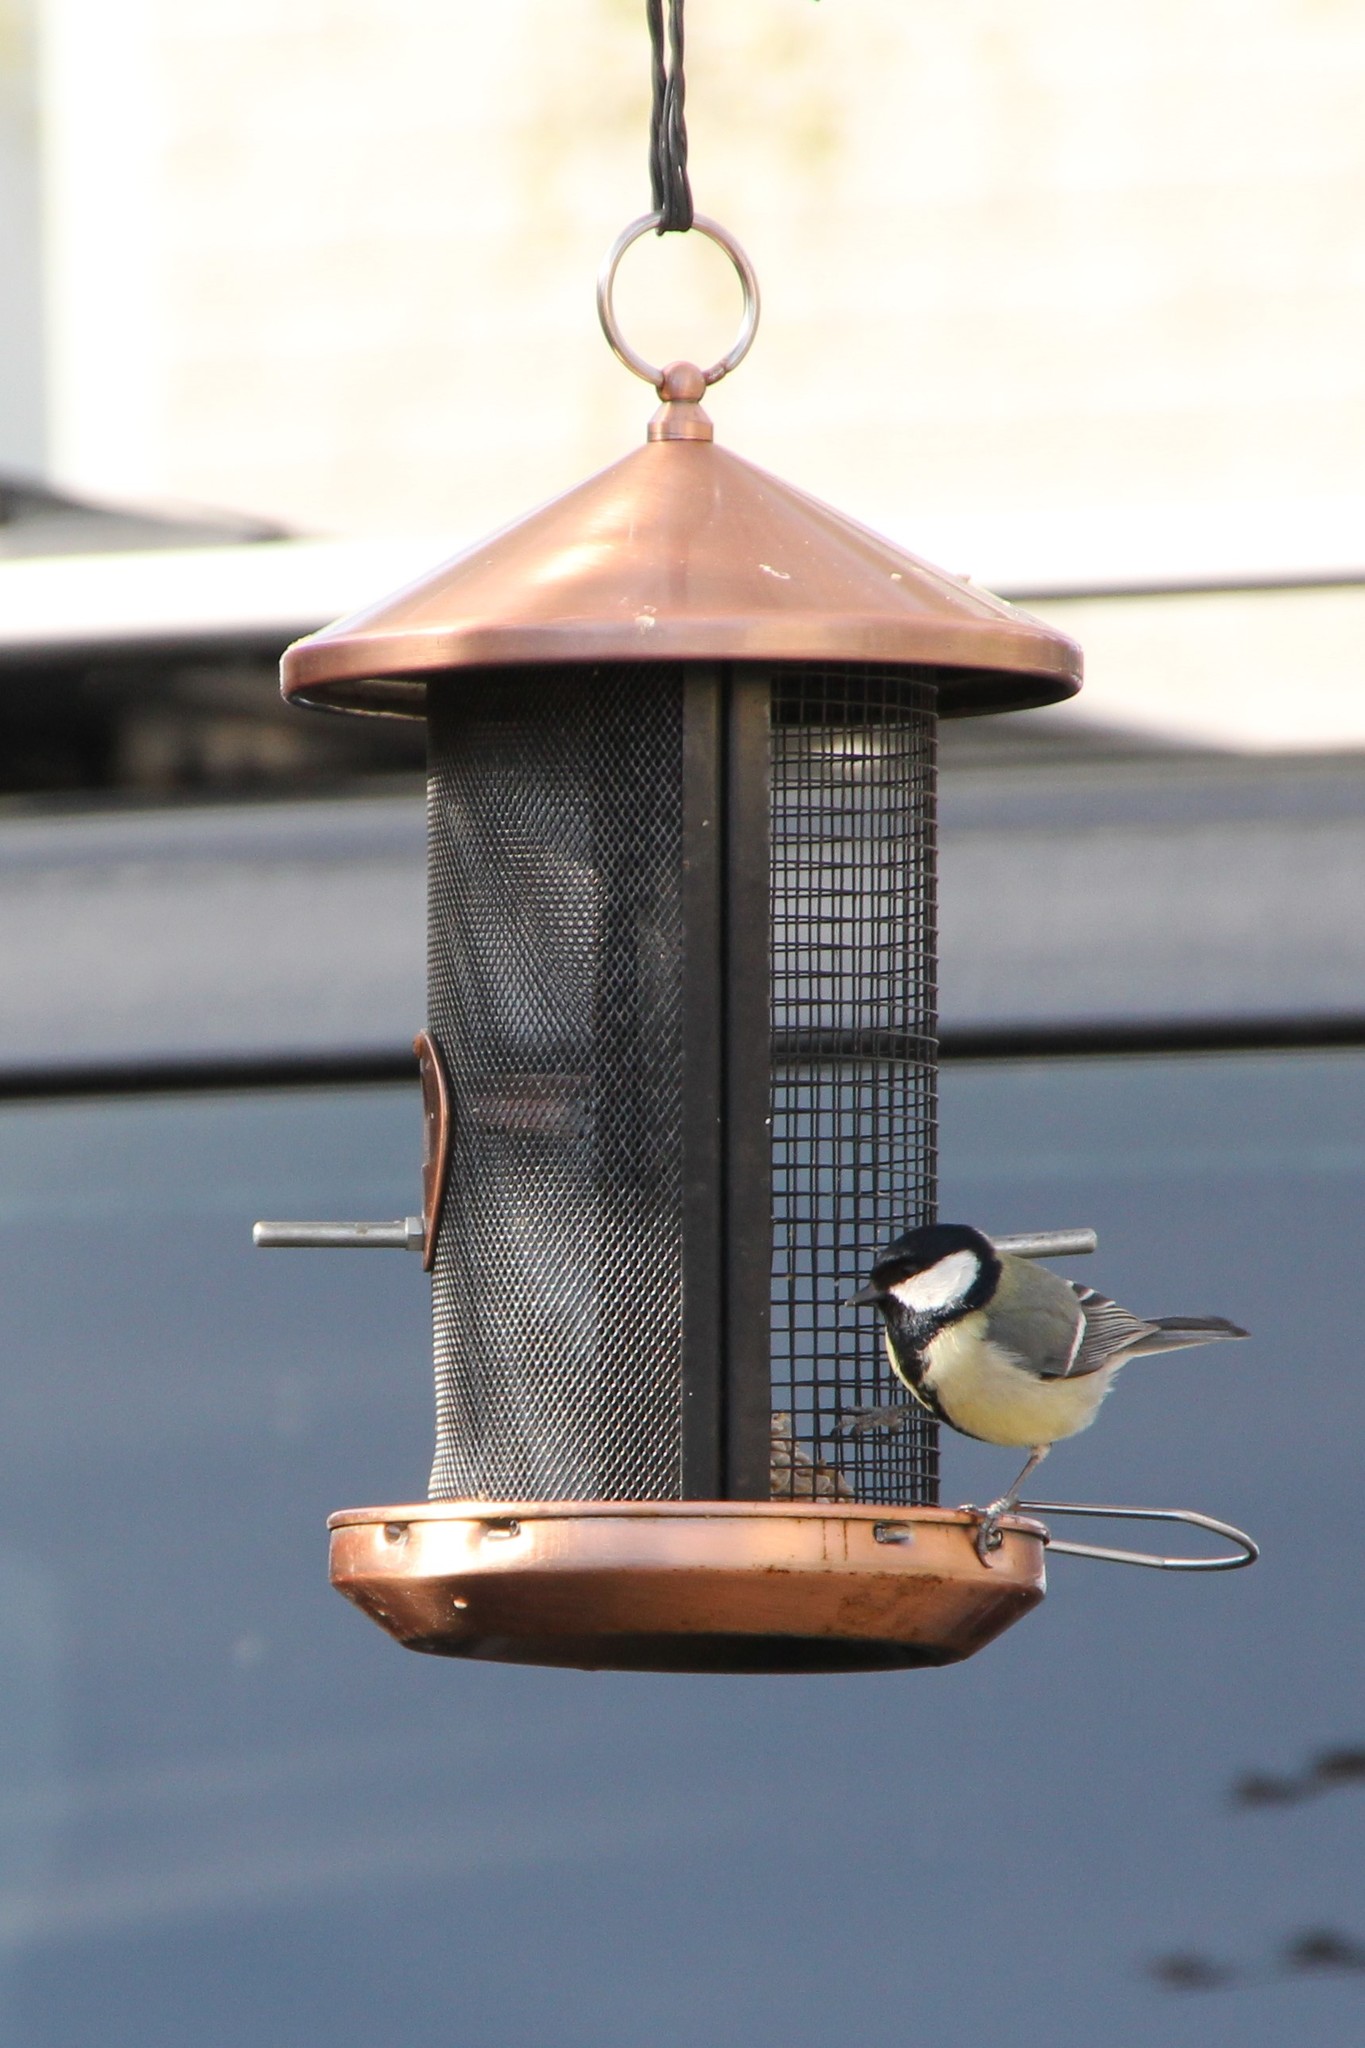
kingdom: Animalia
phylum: Chordata
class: Aves
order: Passeriformes
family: Paridae
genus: Parus
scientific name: Parus major
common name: Great tit
